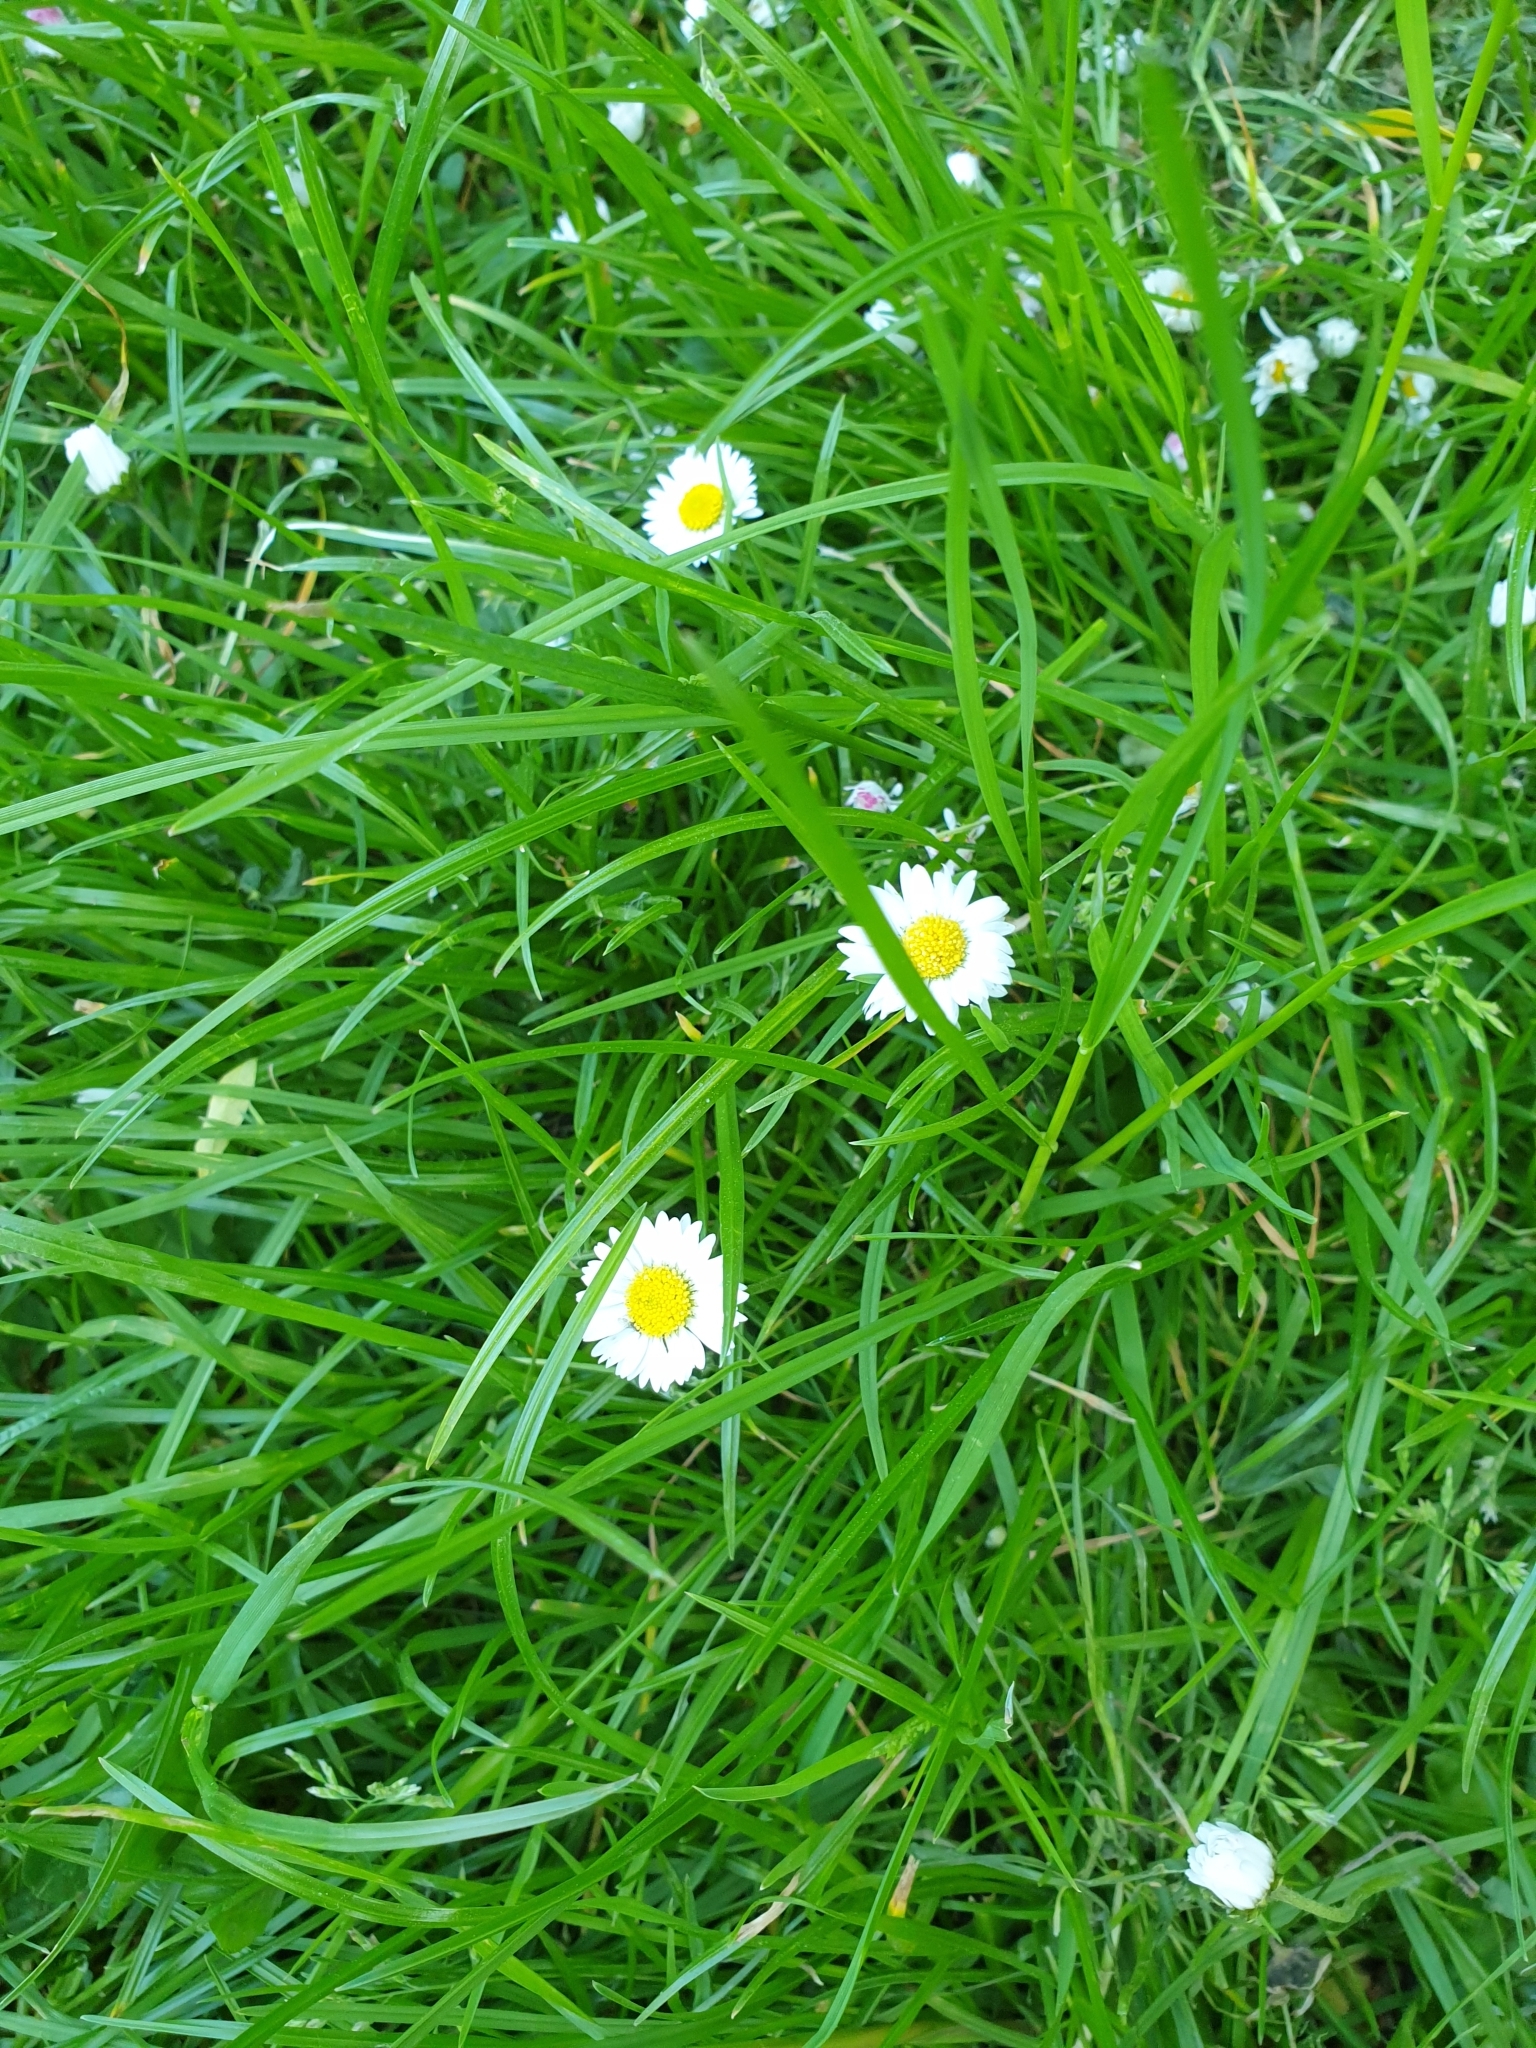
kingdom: Plantae
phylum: Tracheophyta
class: Magnoliopsida
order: Asterales
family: Asteraceae
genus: Bellis
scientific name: Bellis perennis
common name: Lawndaisy
